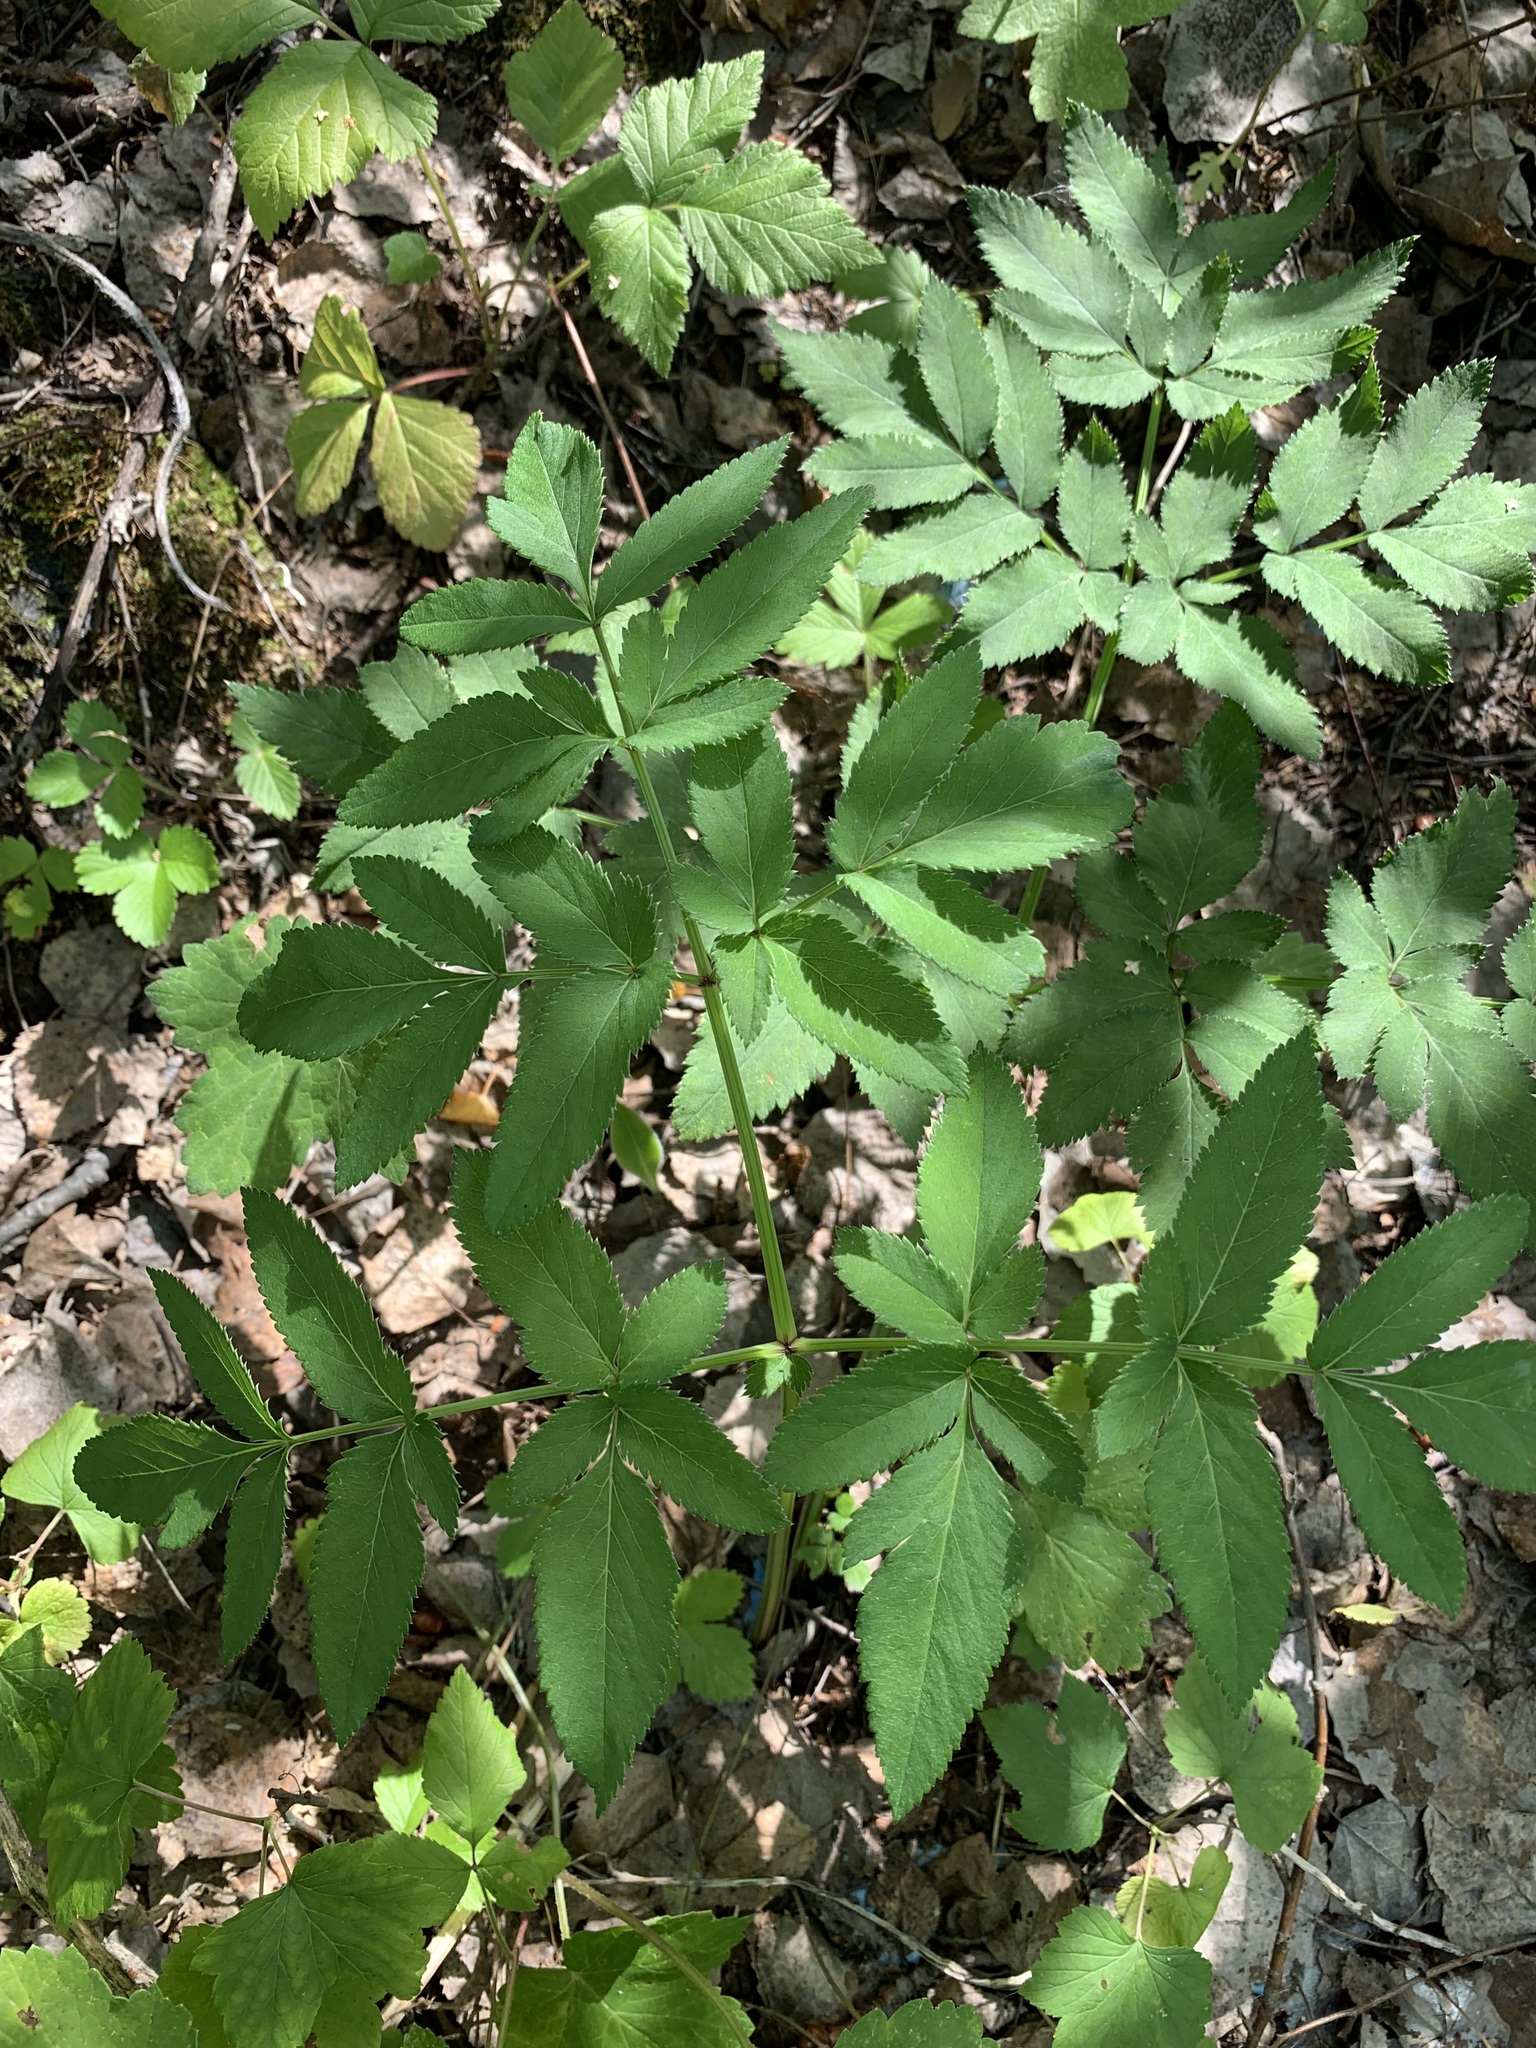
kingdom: Plantae
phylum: Tracheophyta
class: Magnoliopsida
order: Apiales
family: Apiaceae
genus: Angelica
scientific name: Angelica sylvestris
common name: Wild angelica
